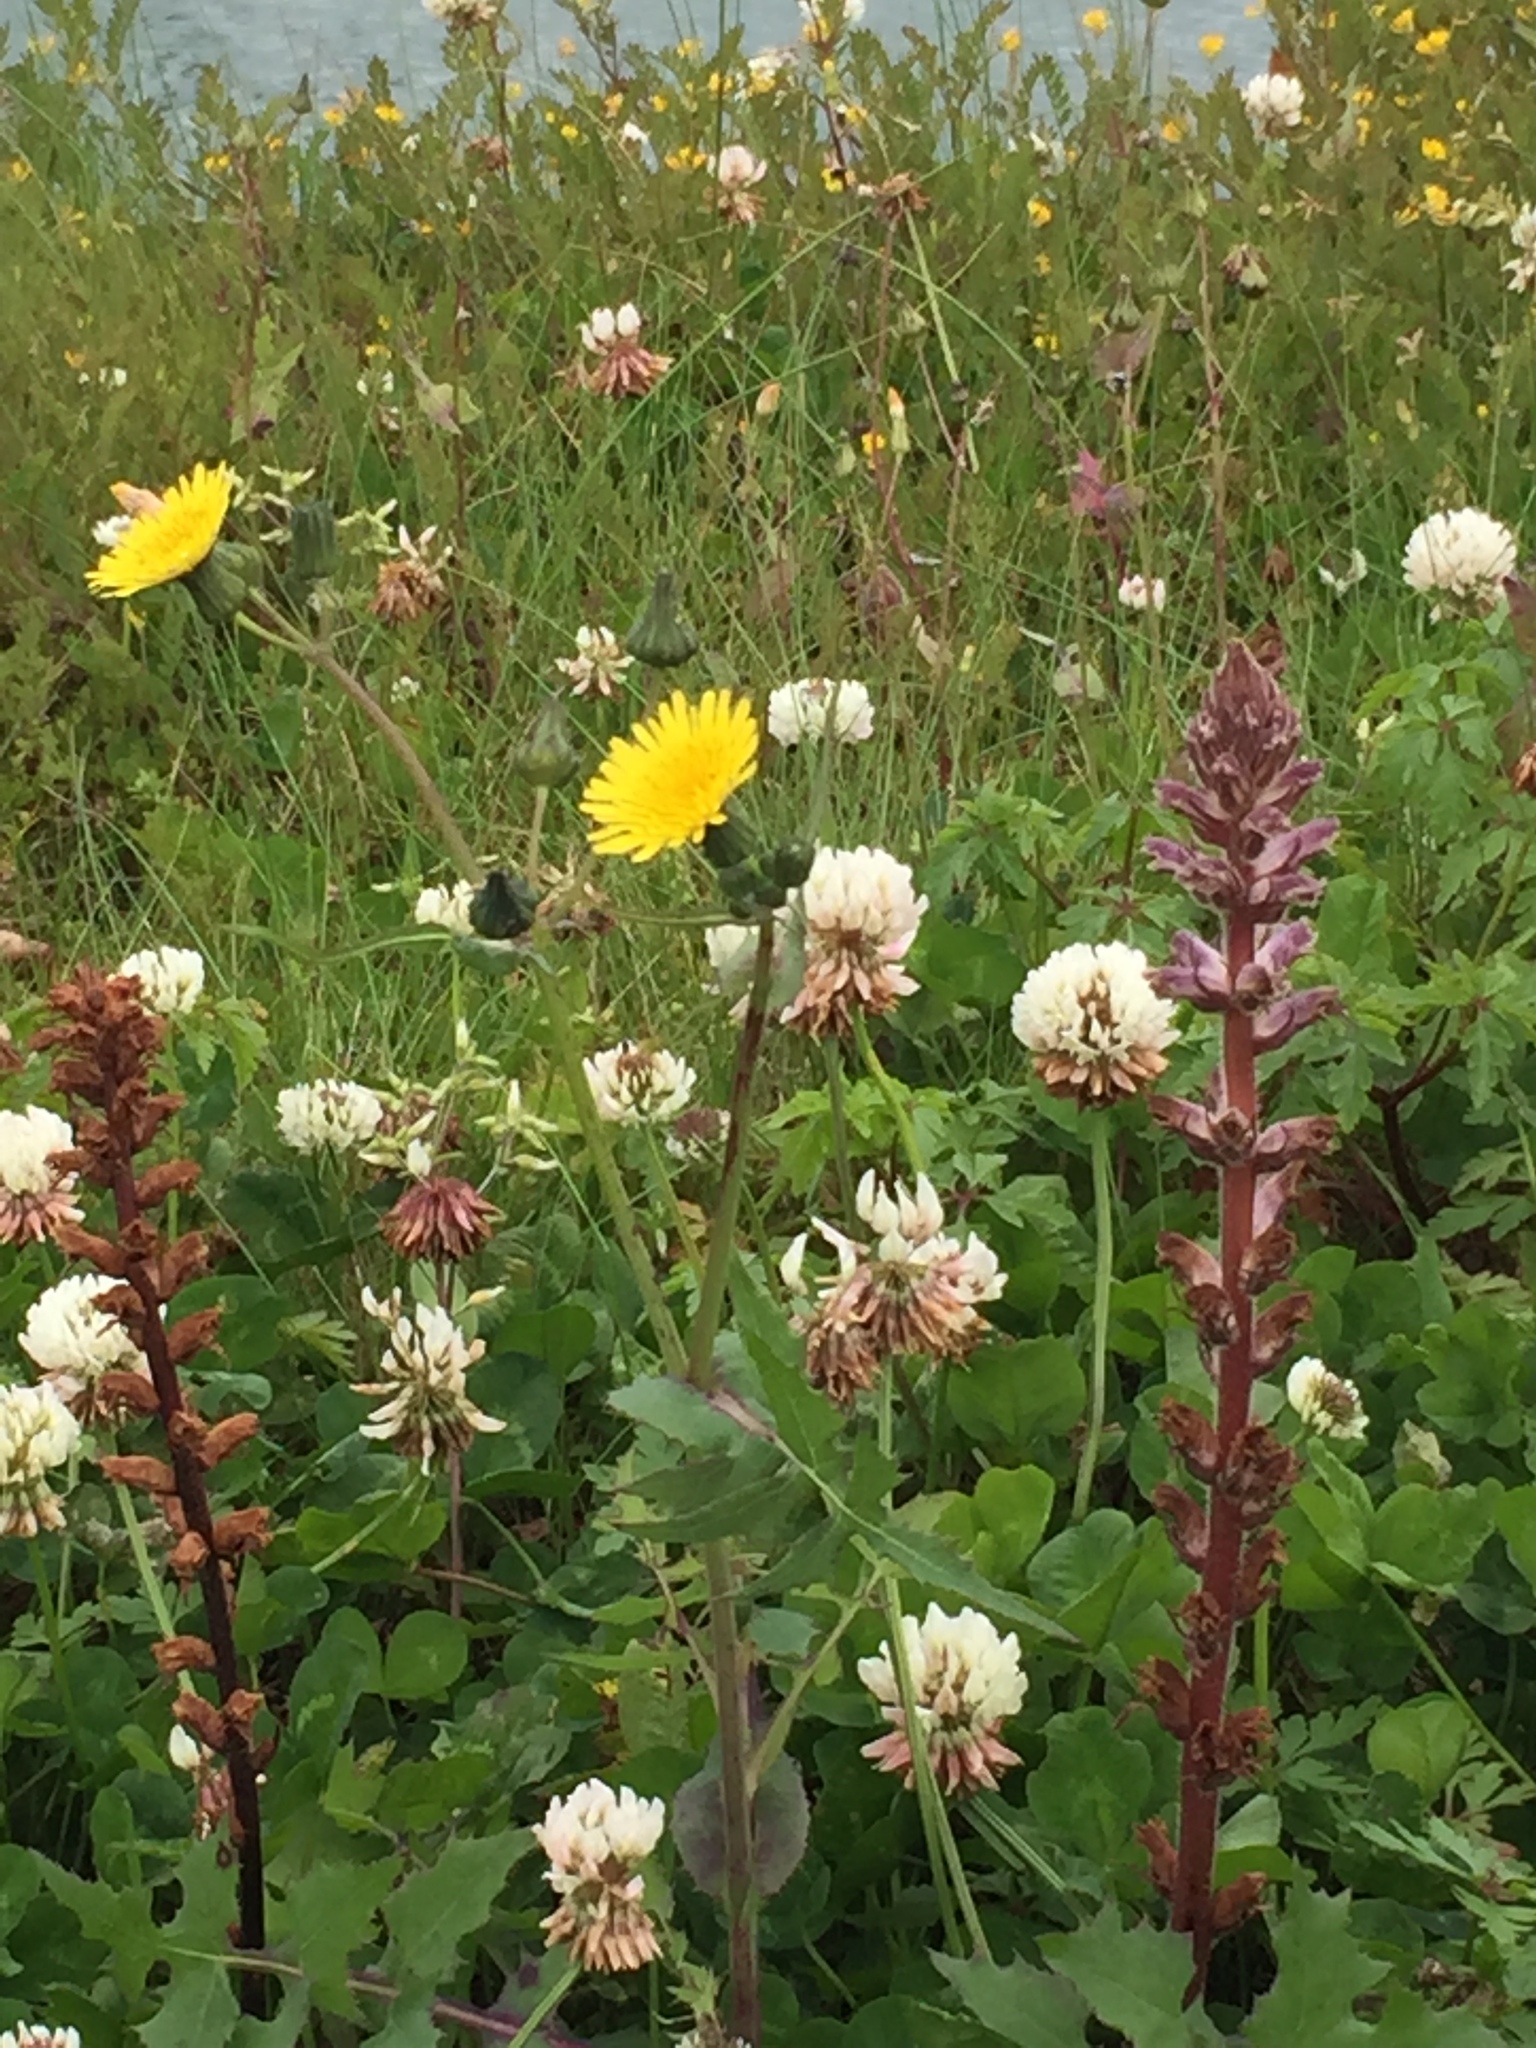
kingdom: Plantae
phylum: Tracheophyta
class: Magnoliopsida
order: Lamiales
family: Orobanchaceae
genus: Orobanche
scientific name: Orobanche minor
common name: Common broomrape
